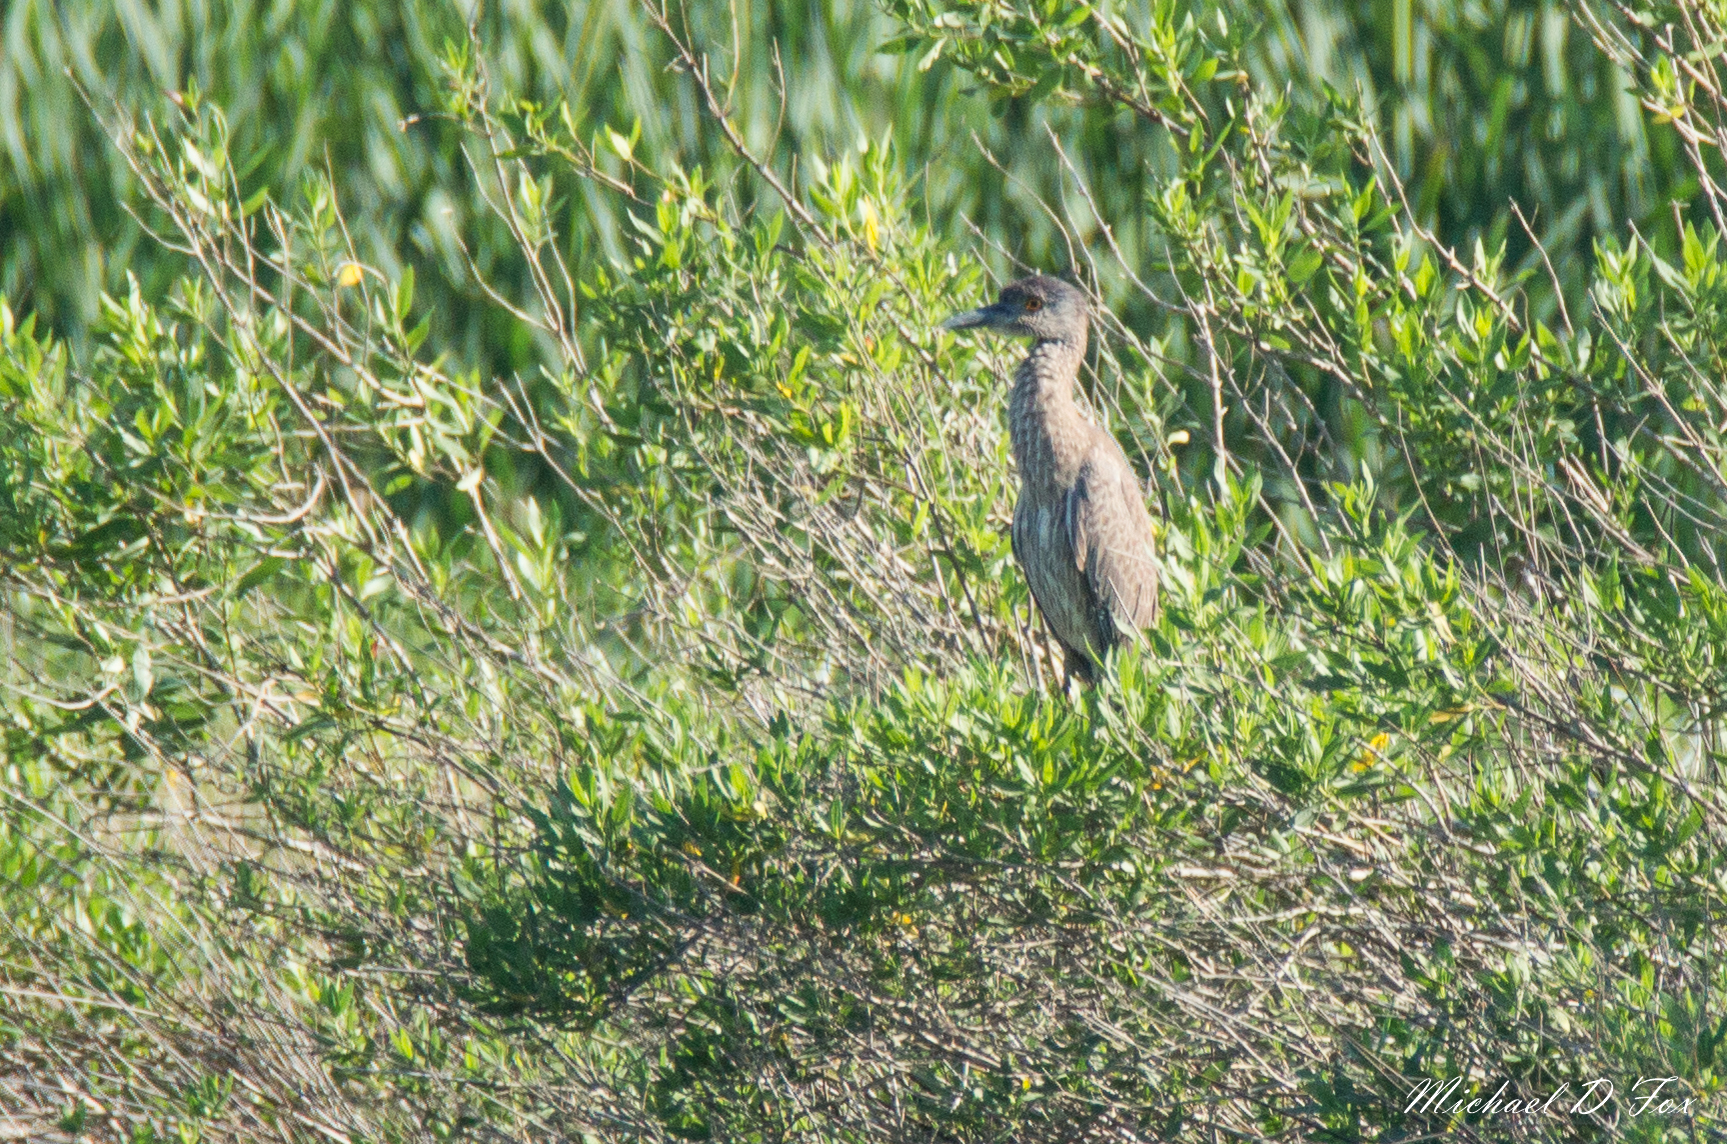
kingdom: Animalia
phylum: Chordata
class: Aves
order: Pelecaniformes
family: Ardeidae
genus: Nyctanassa
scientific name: Nyctanassa violacea
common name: Yellow-crowned night heron
